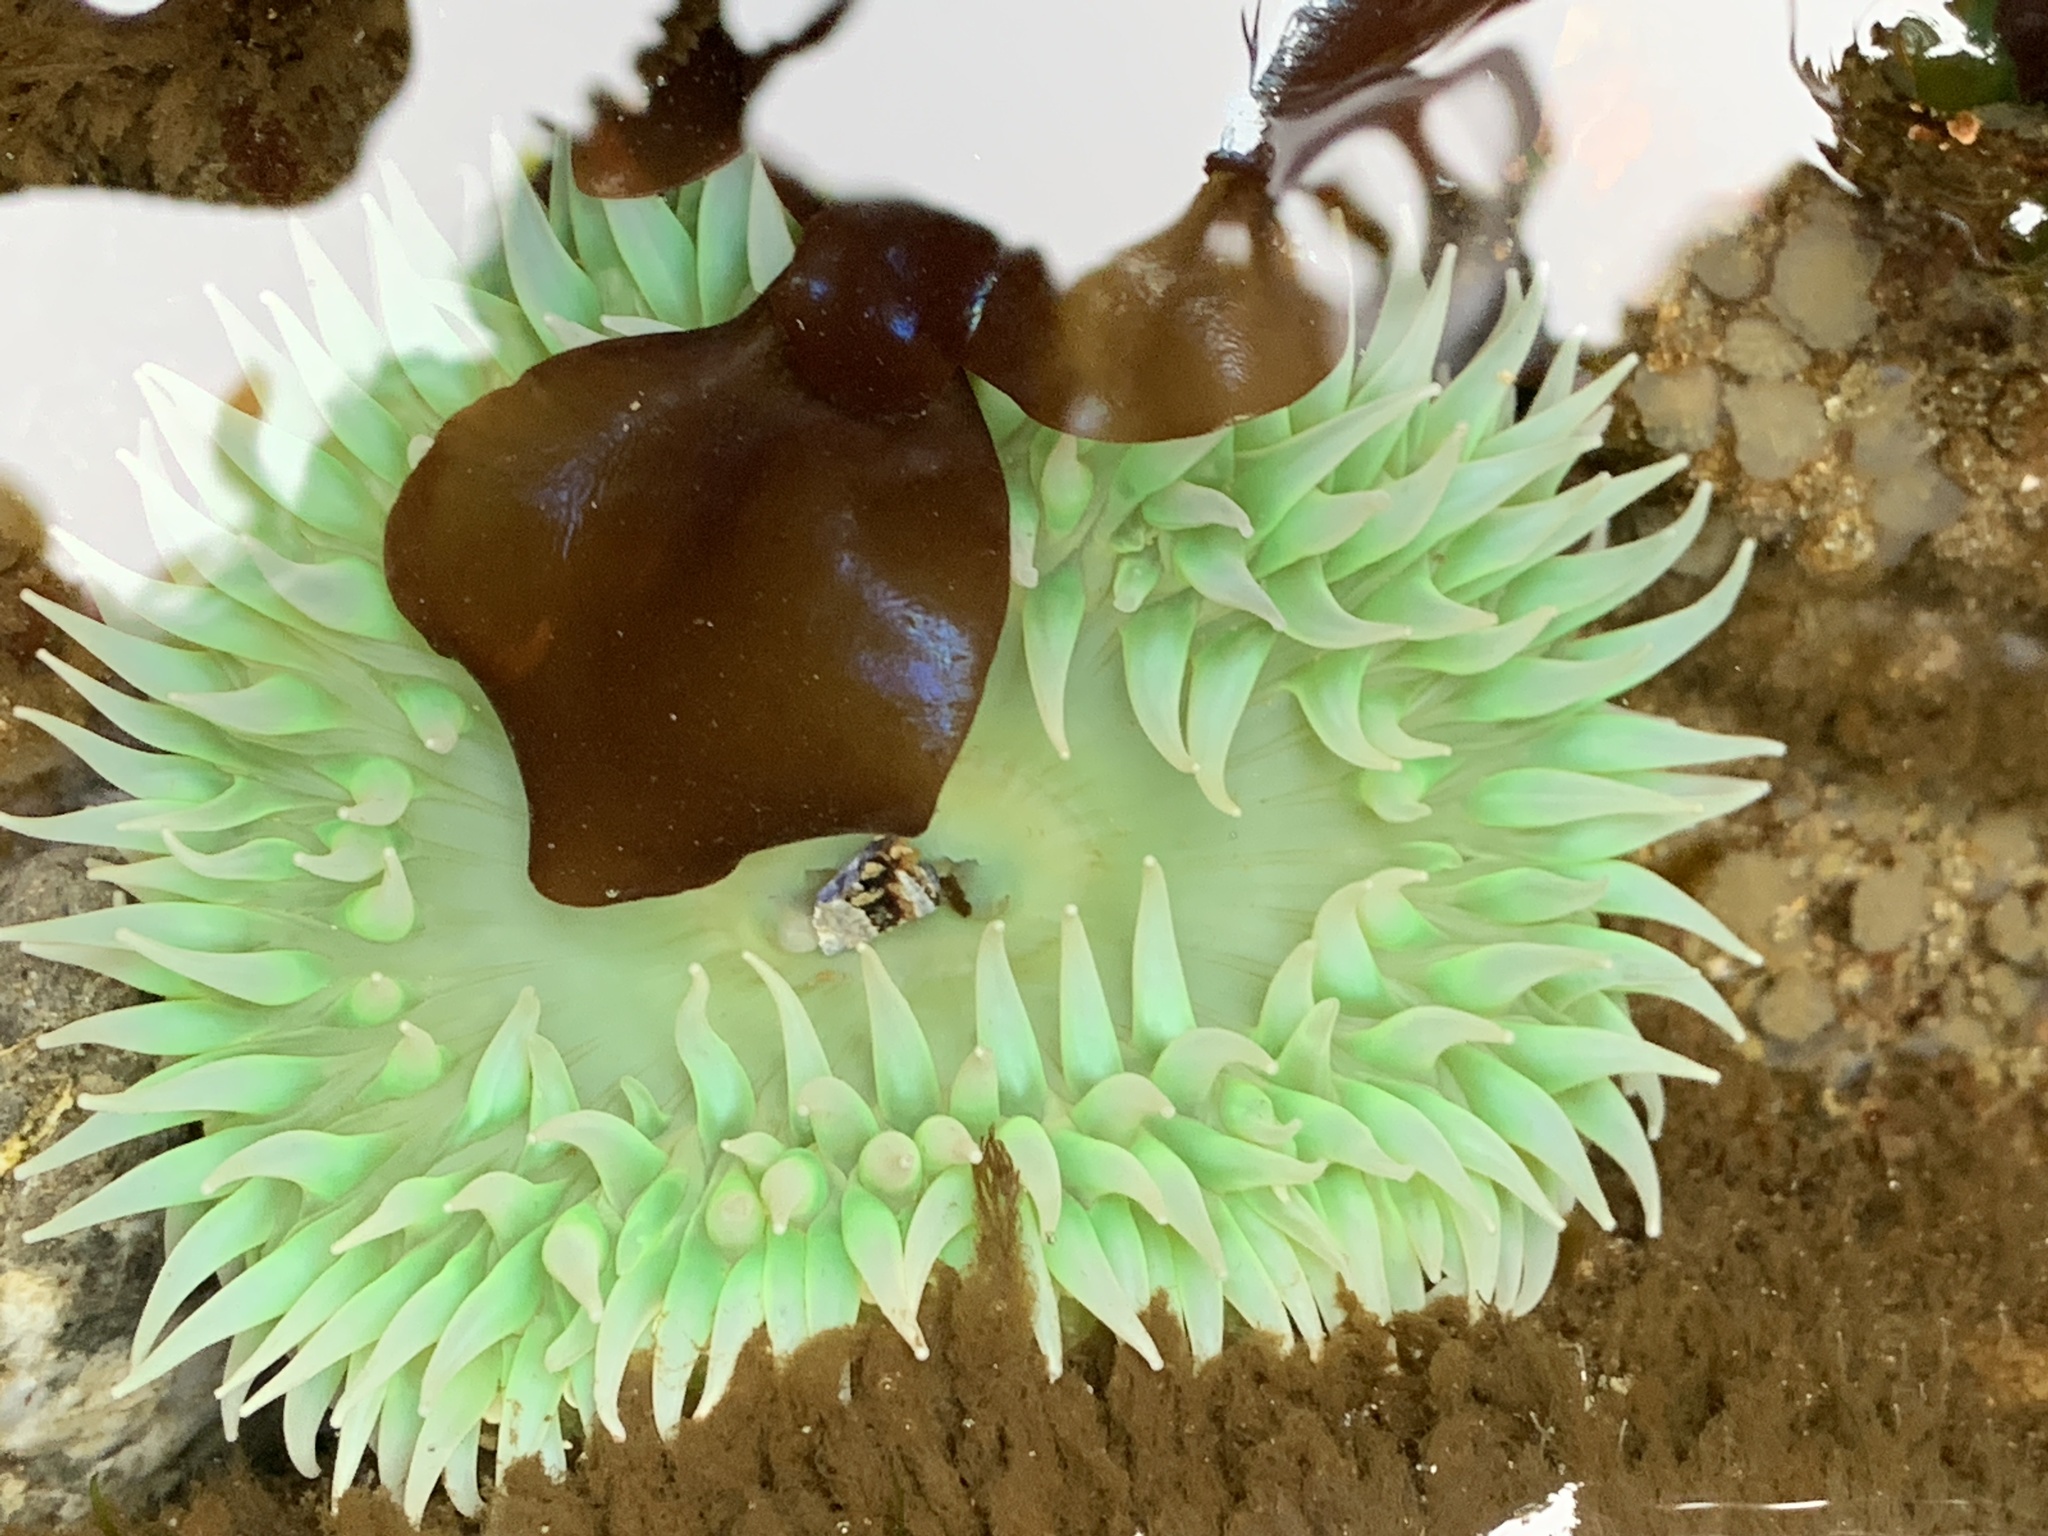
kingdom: Animalia
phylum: Cnidaria
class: Anthozoa
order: Actiniaria
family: Actiniidae
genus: Anthopleura
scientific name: Anthopleura xanthogrammica
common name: Giant green anemone
